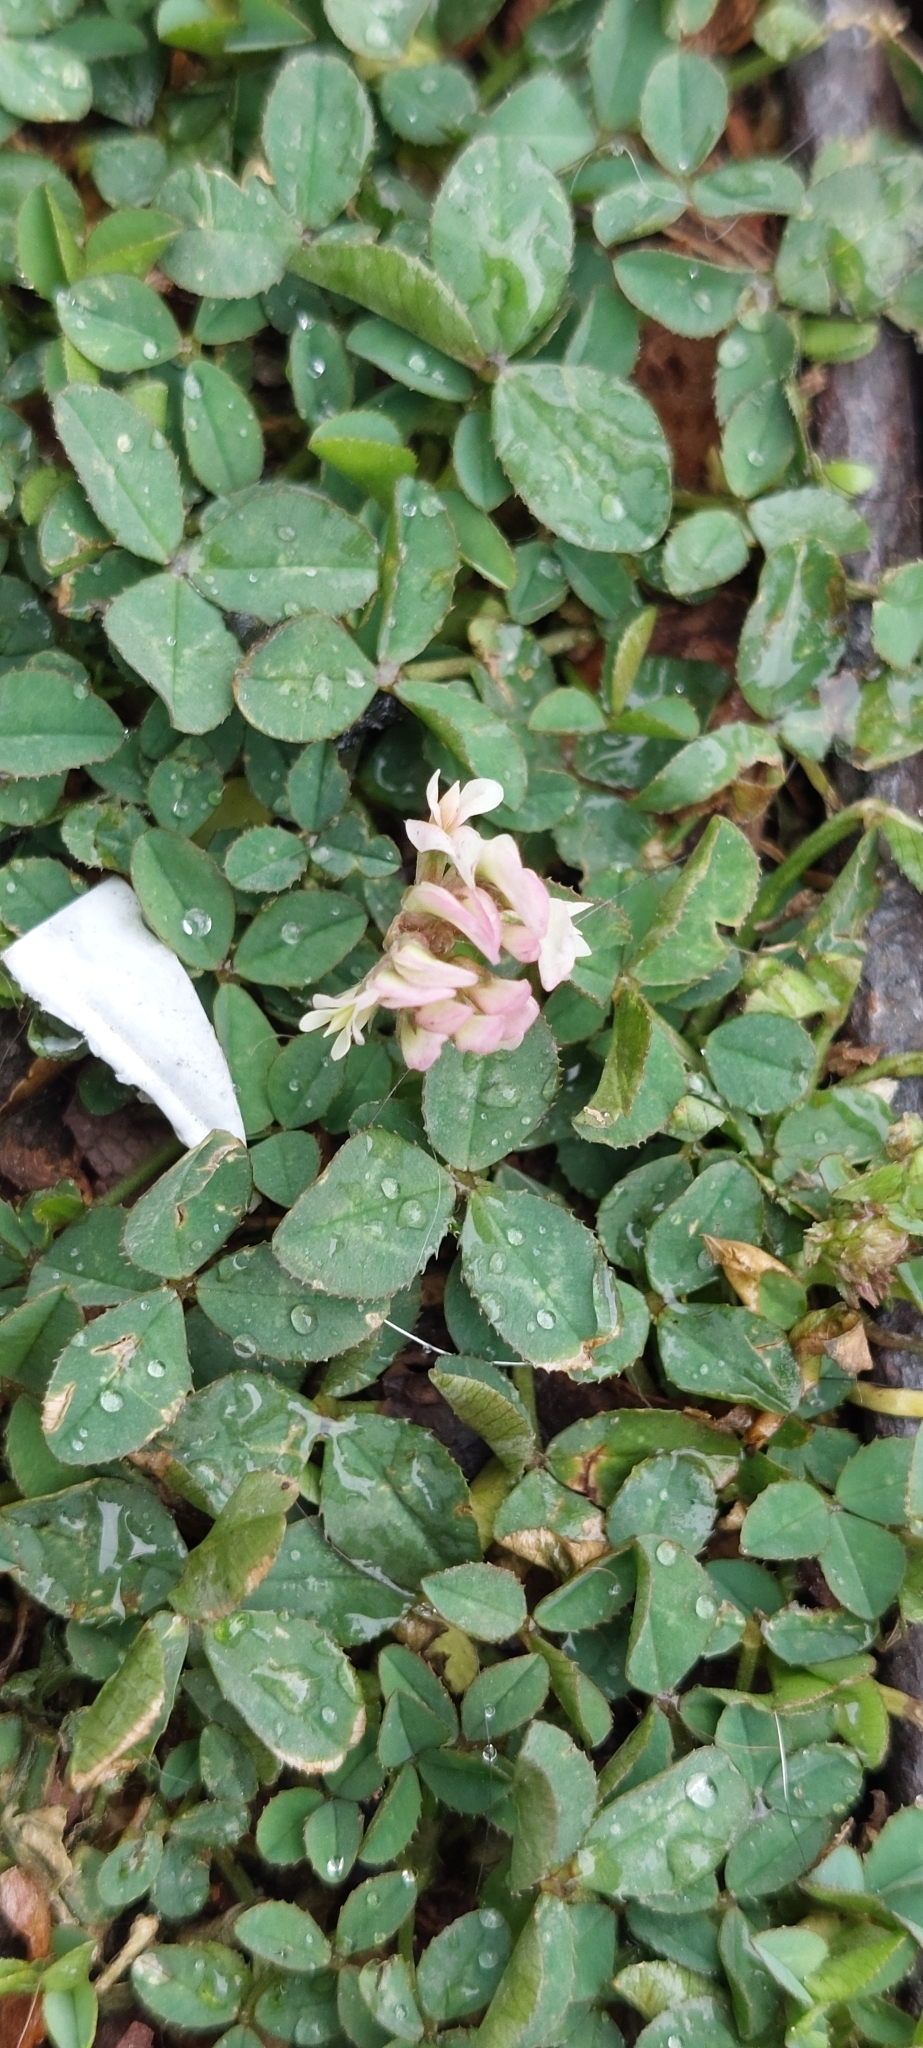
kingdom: Plantae
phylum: Tracheophyta
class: Magnoliopsida
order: Fabales
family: Fabaceae
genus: Trifolium
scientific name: Trifolium repens
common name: White clover
